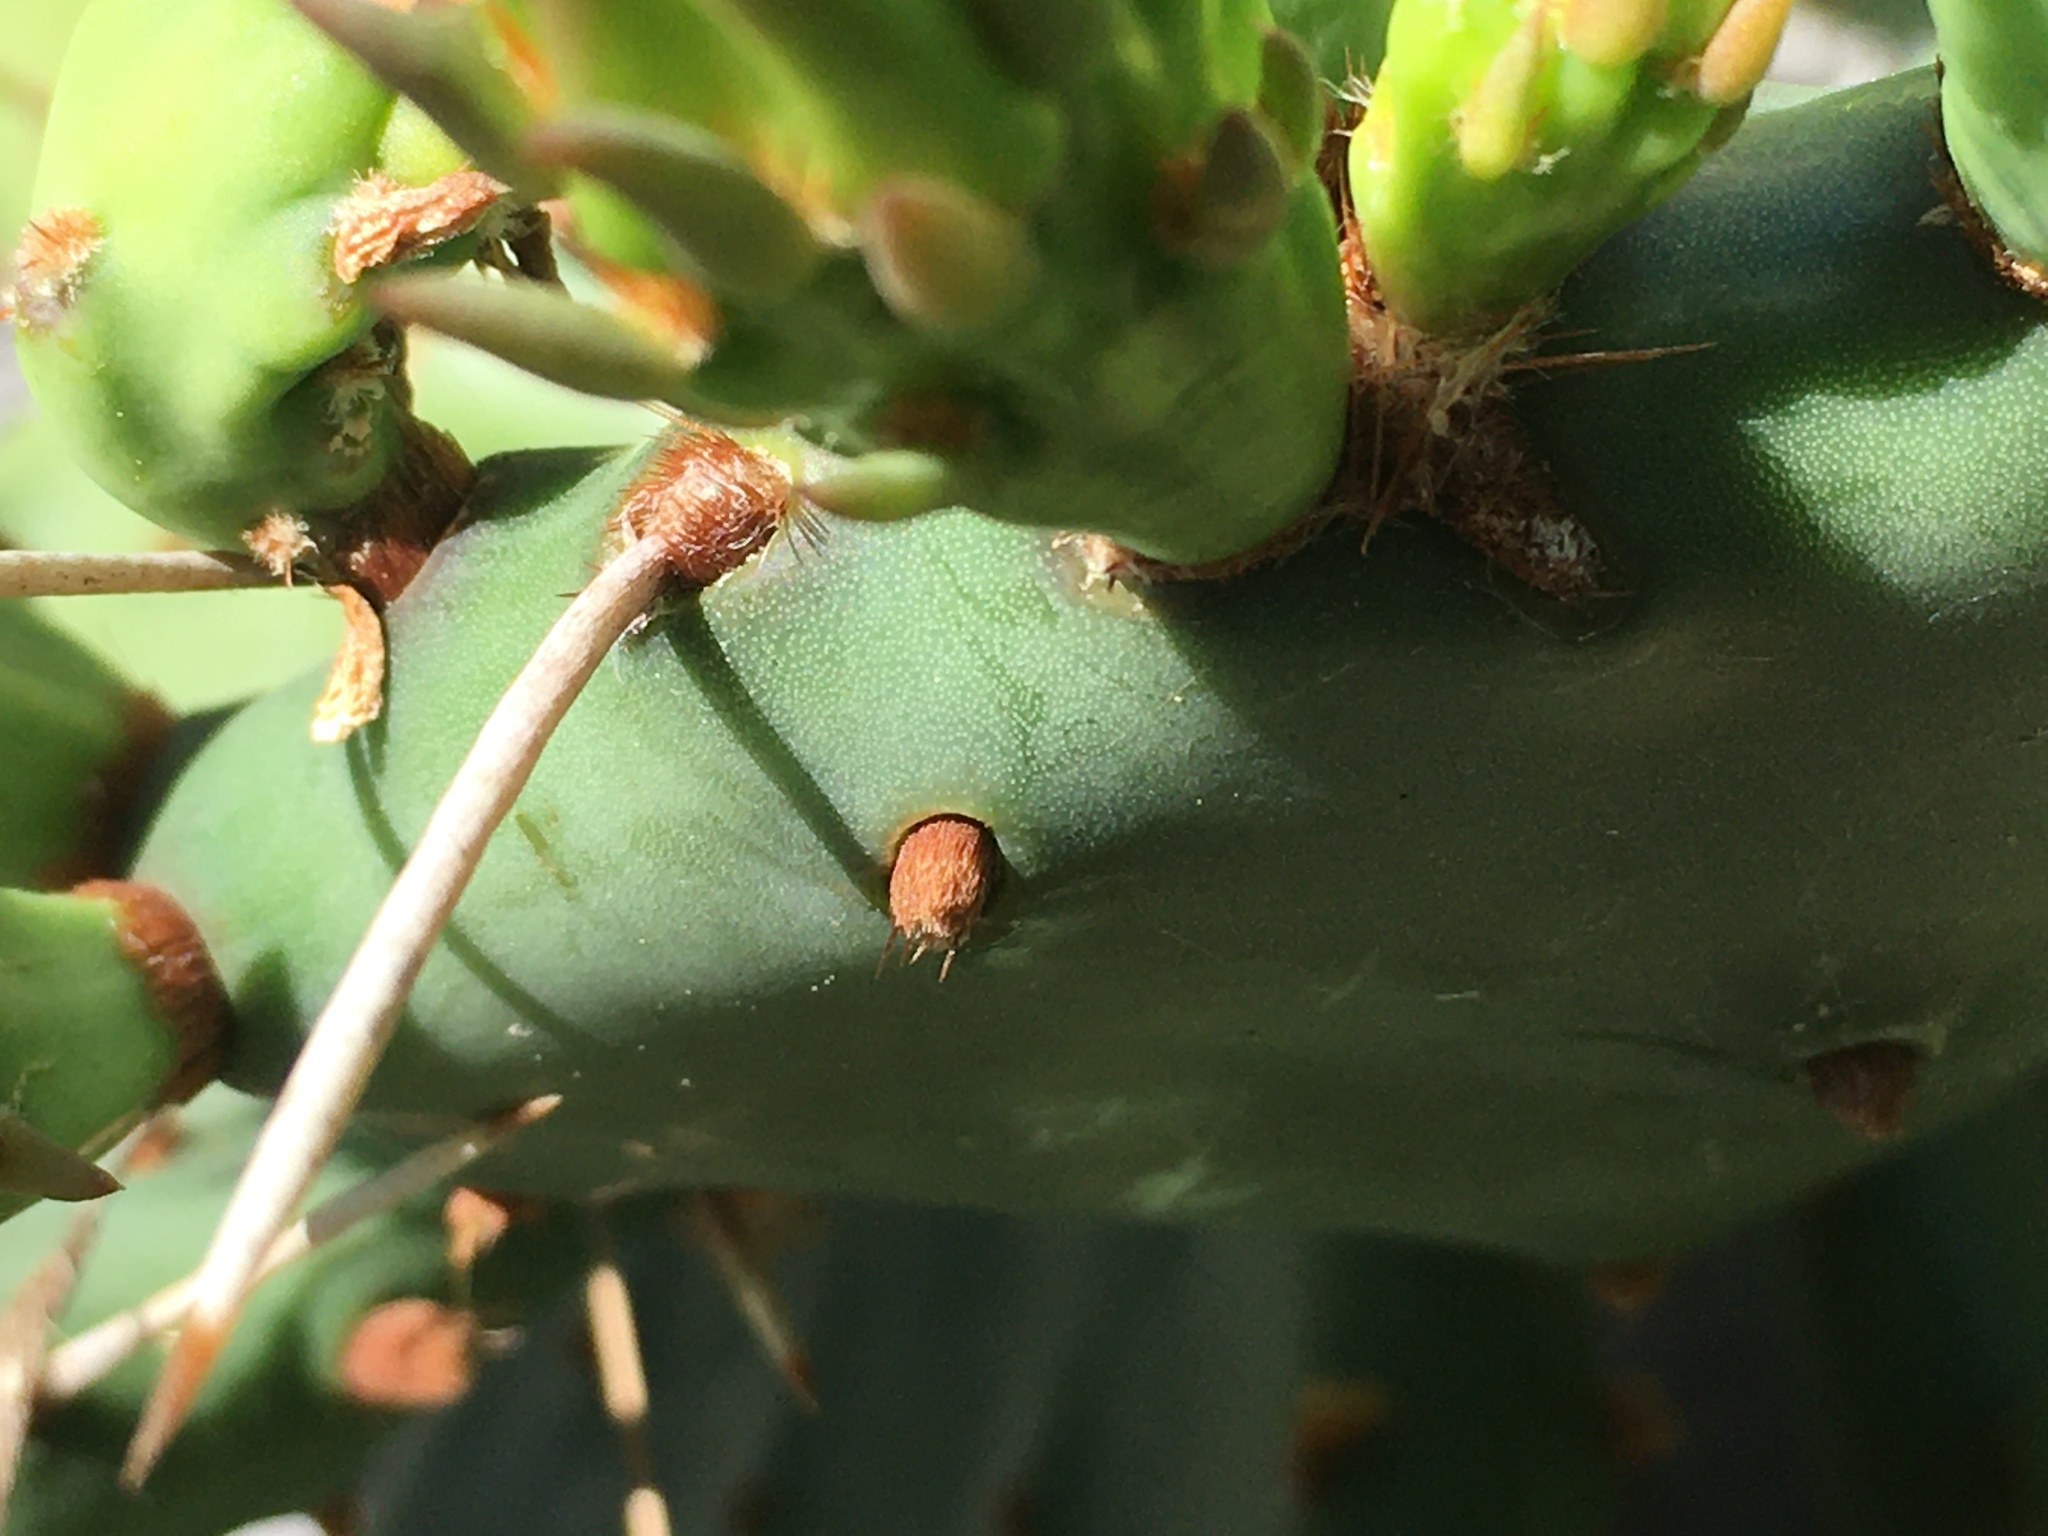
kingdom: Plantae
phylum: Tracheophyta
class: Magnoliopsida
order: Caryophyllales
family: Cactaceae
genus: Opuntia
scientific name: Opuntia humifusa
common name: Eastern prickly-pear
